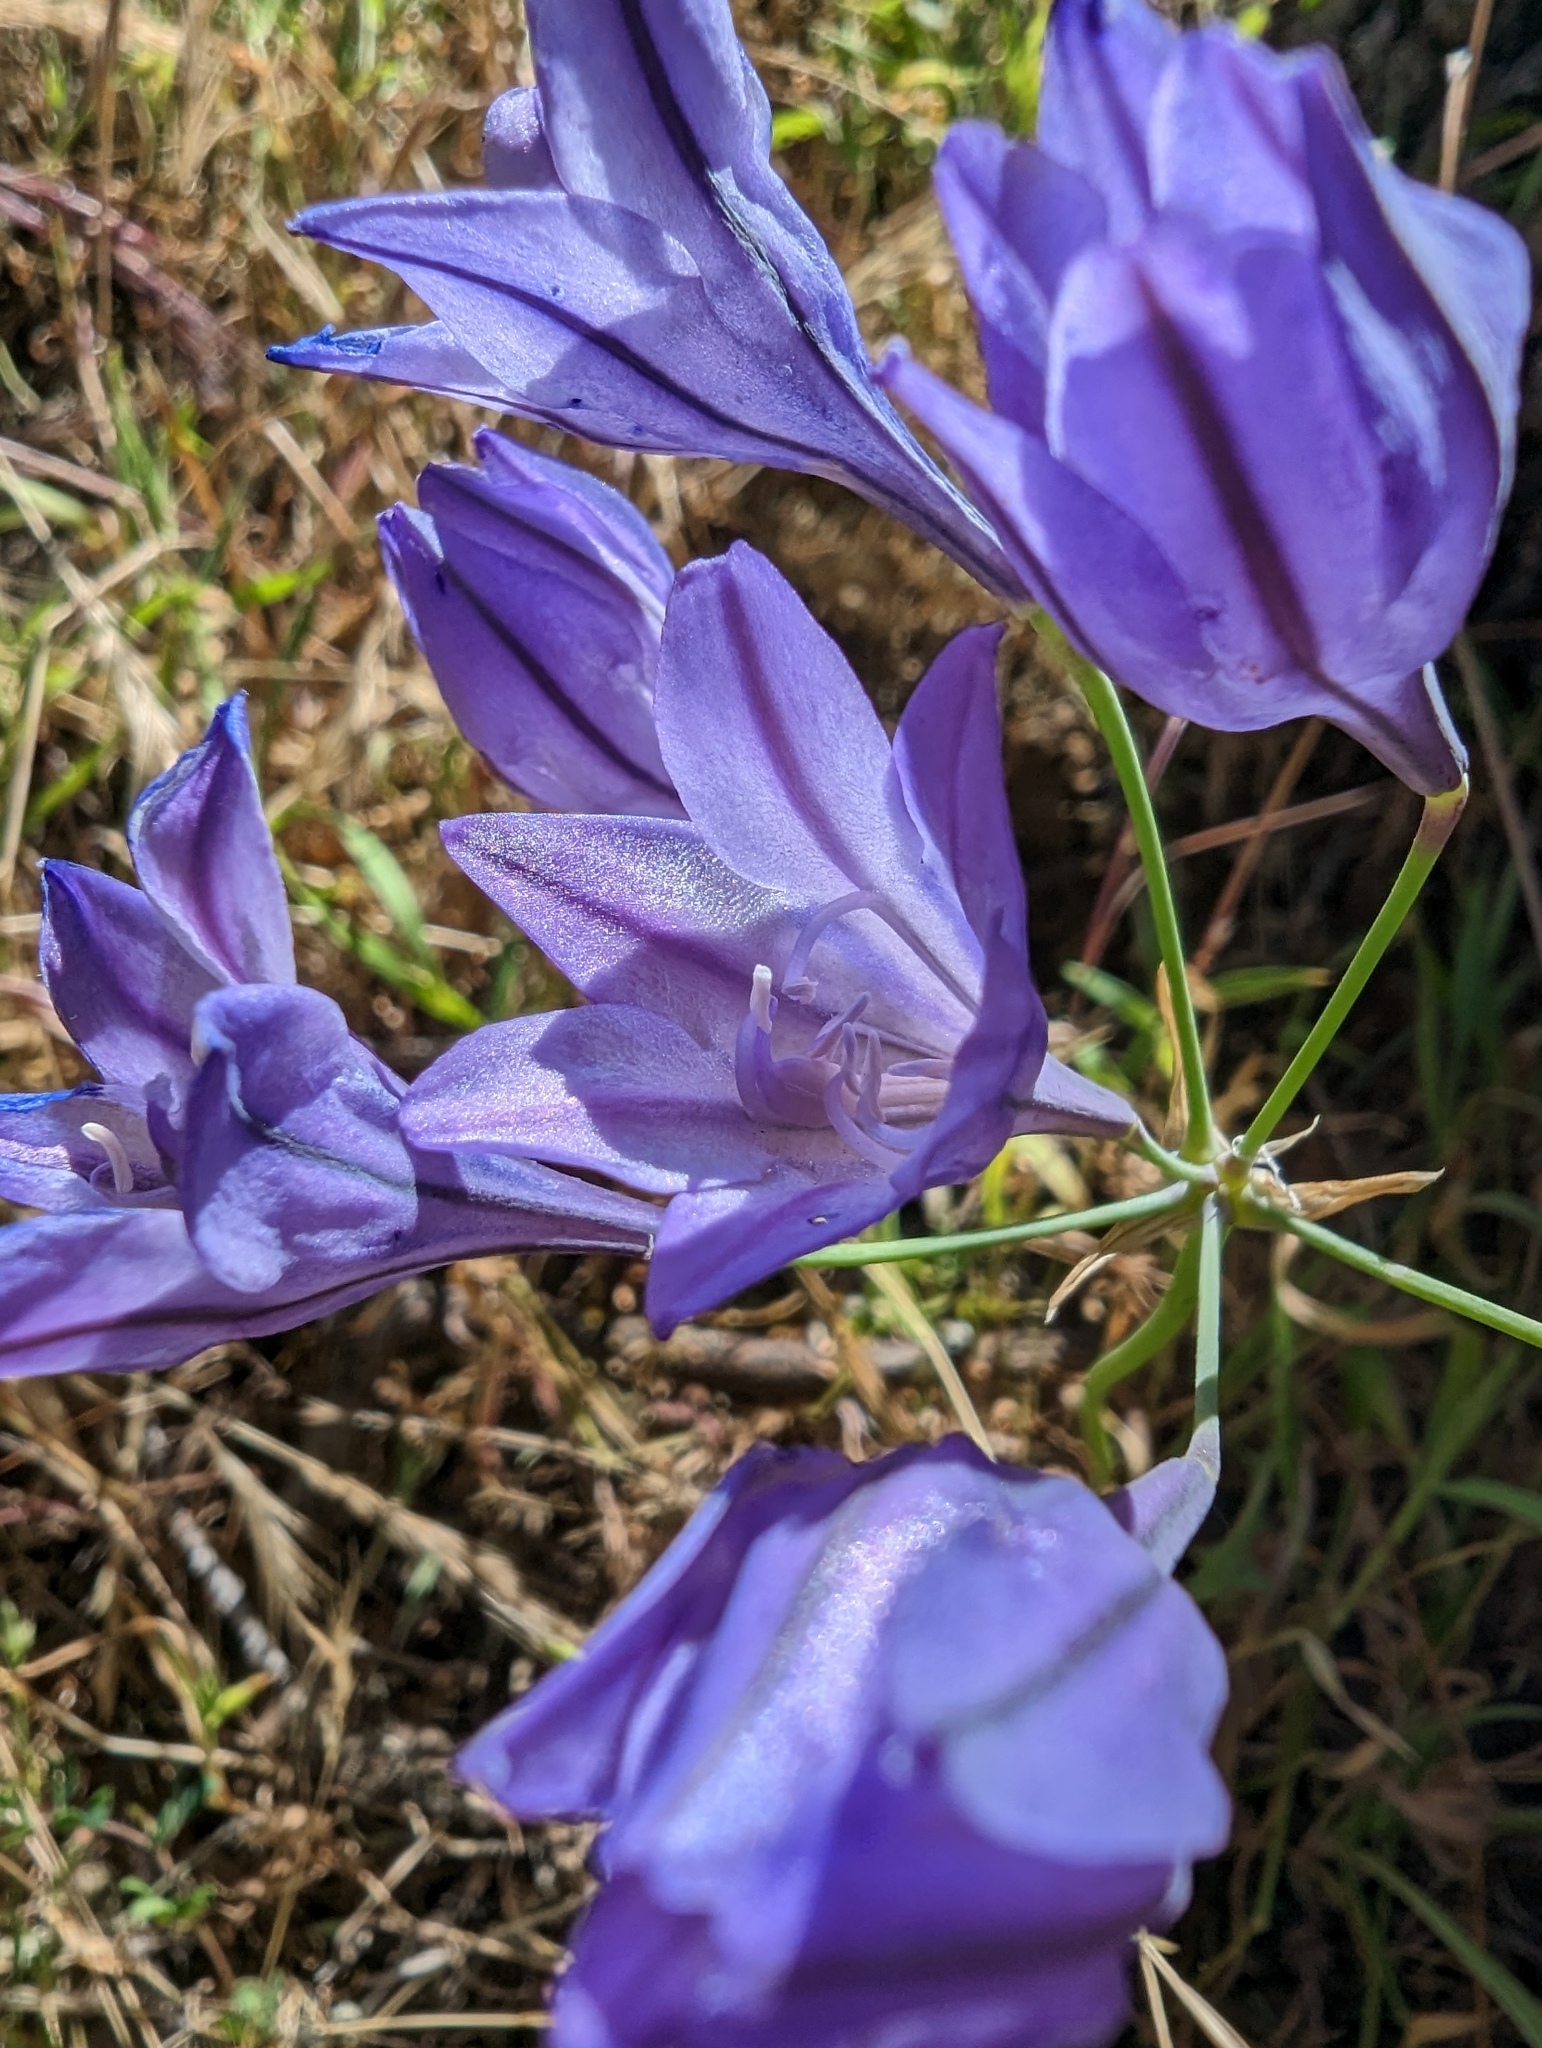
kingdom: Plantae
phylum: Tracheophyta
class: Liliopsida
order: Asparagales
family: Asparagaceae
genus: Triteleia
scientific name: Triteleia laxa
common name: Triplet-lily
